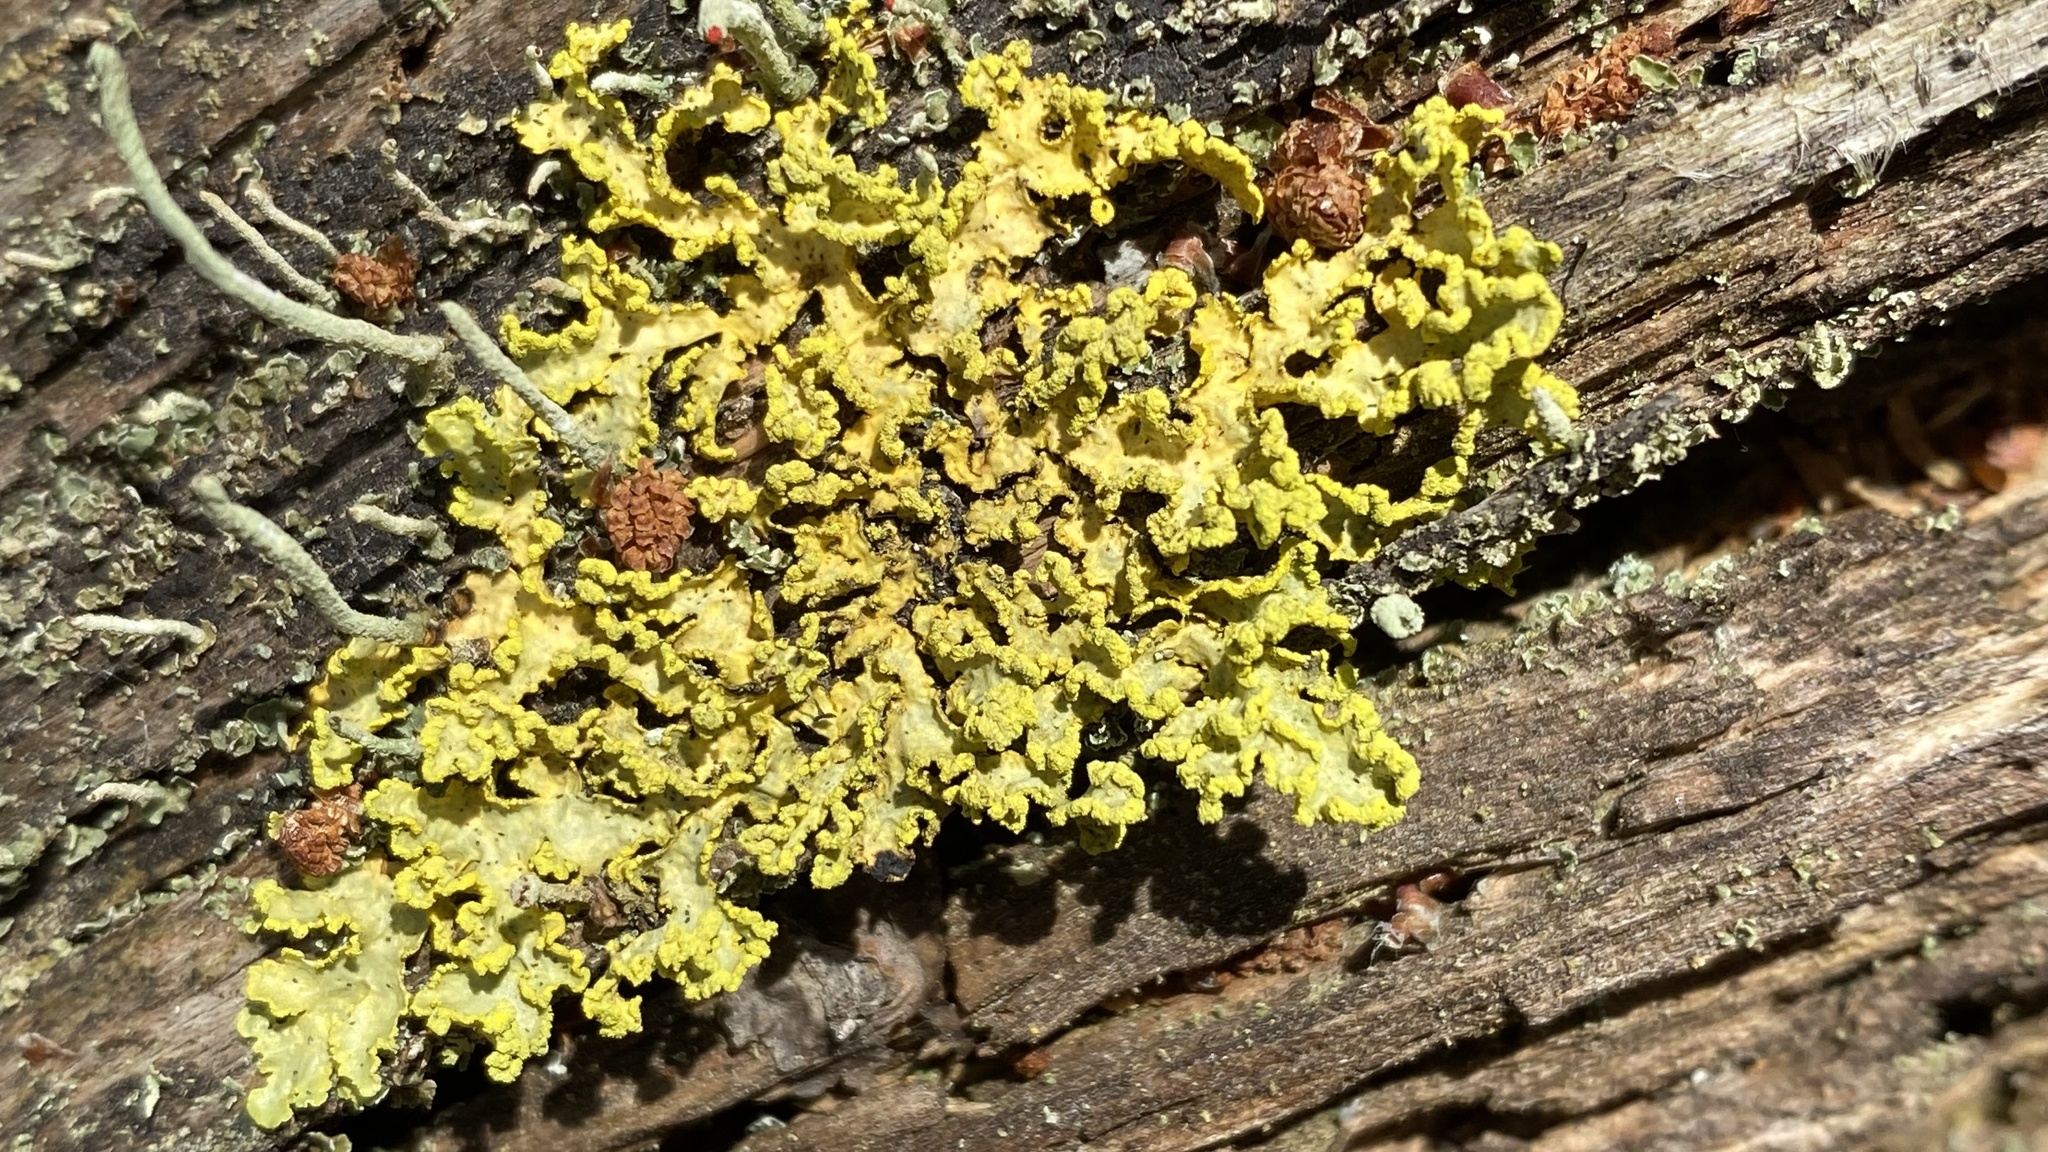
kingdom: Fungi
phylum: Ascomycota
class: Lecanoromycetes
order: Lecanorales
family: Parmeliaceae
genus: Vulpicida
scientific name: Vulpicida pinastri
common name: Powdered sunshine lichen
